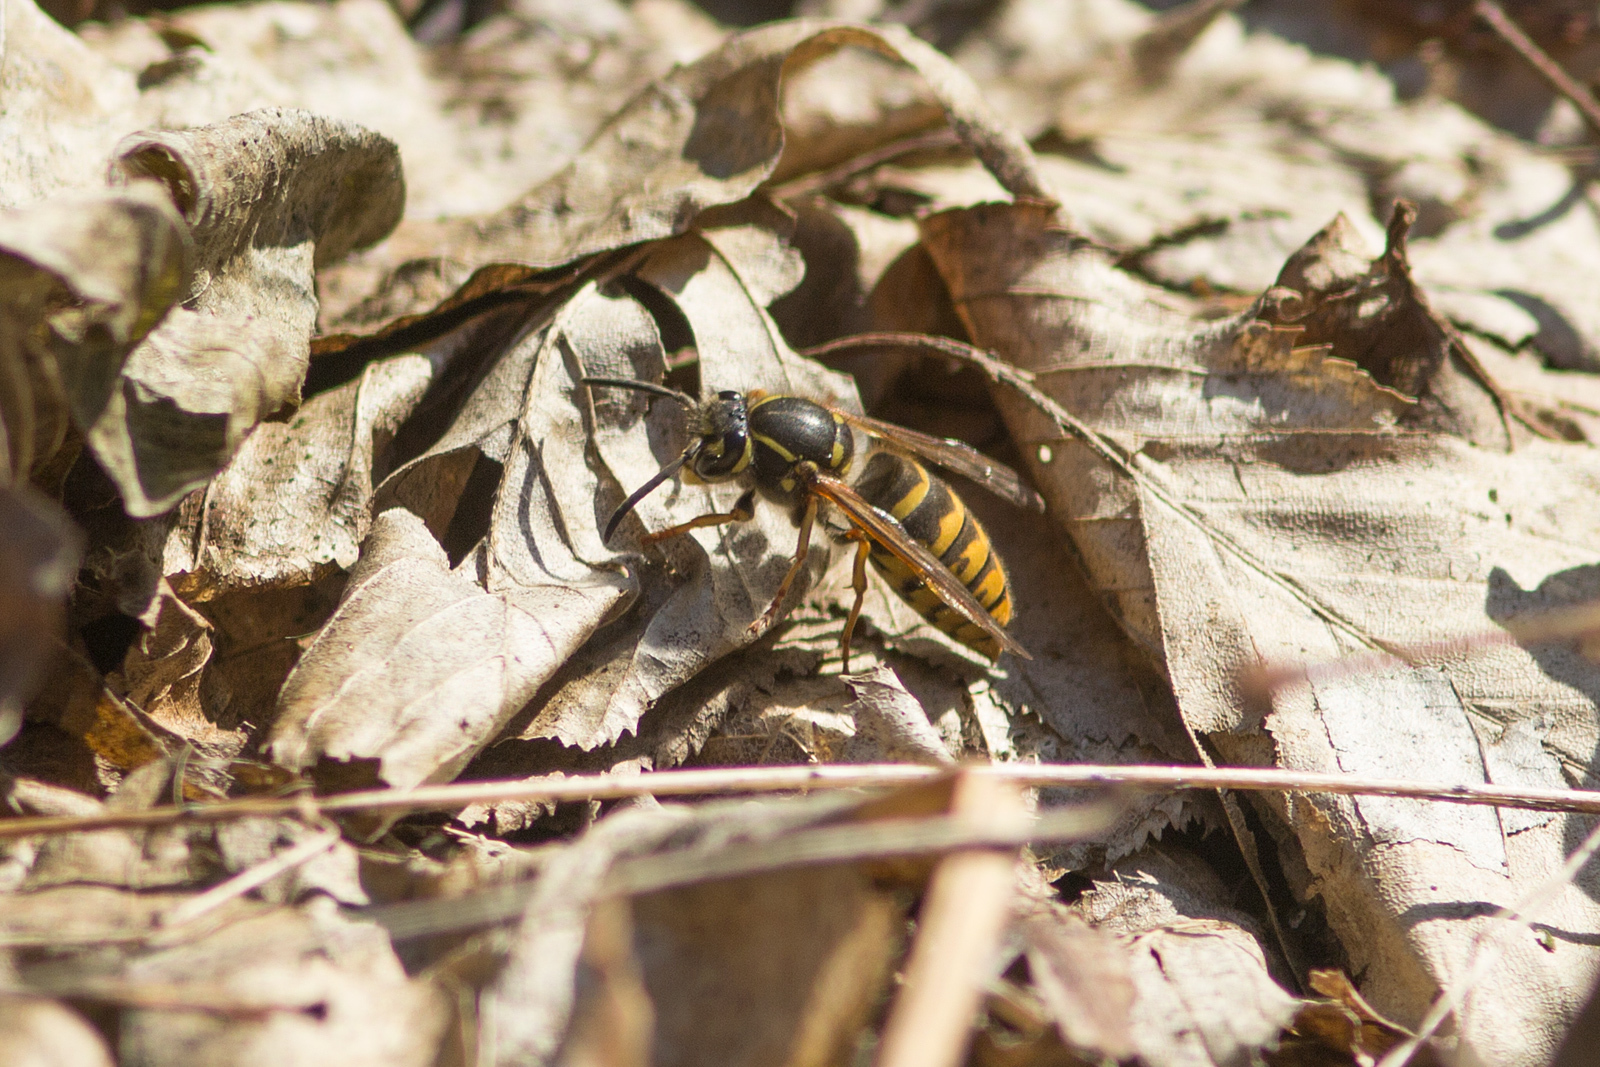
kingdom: Animalia
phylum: Arthropoda
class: Insecta
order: Hymenoptera
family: Vespidae
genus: Vespula
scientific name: Vespula vulgaris
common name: Common wasp
